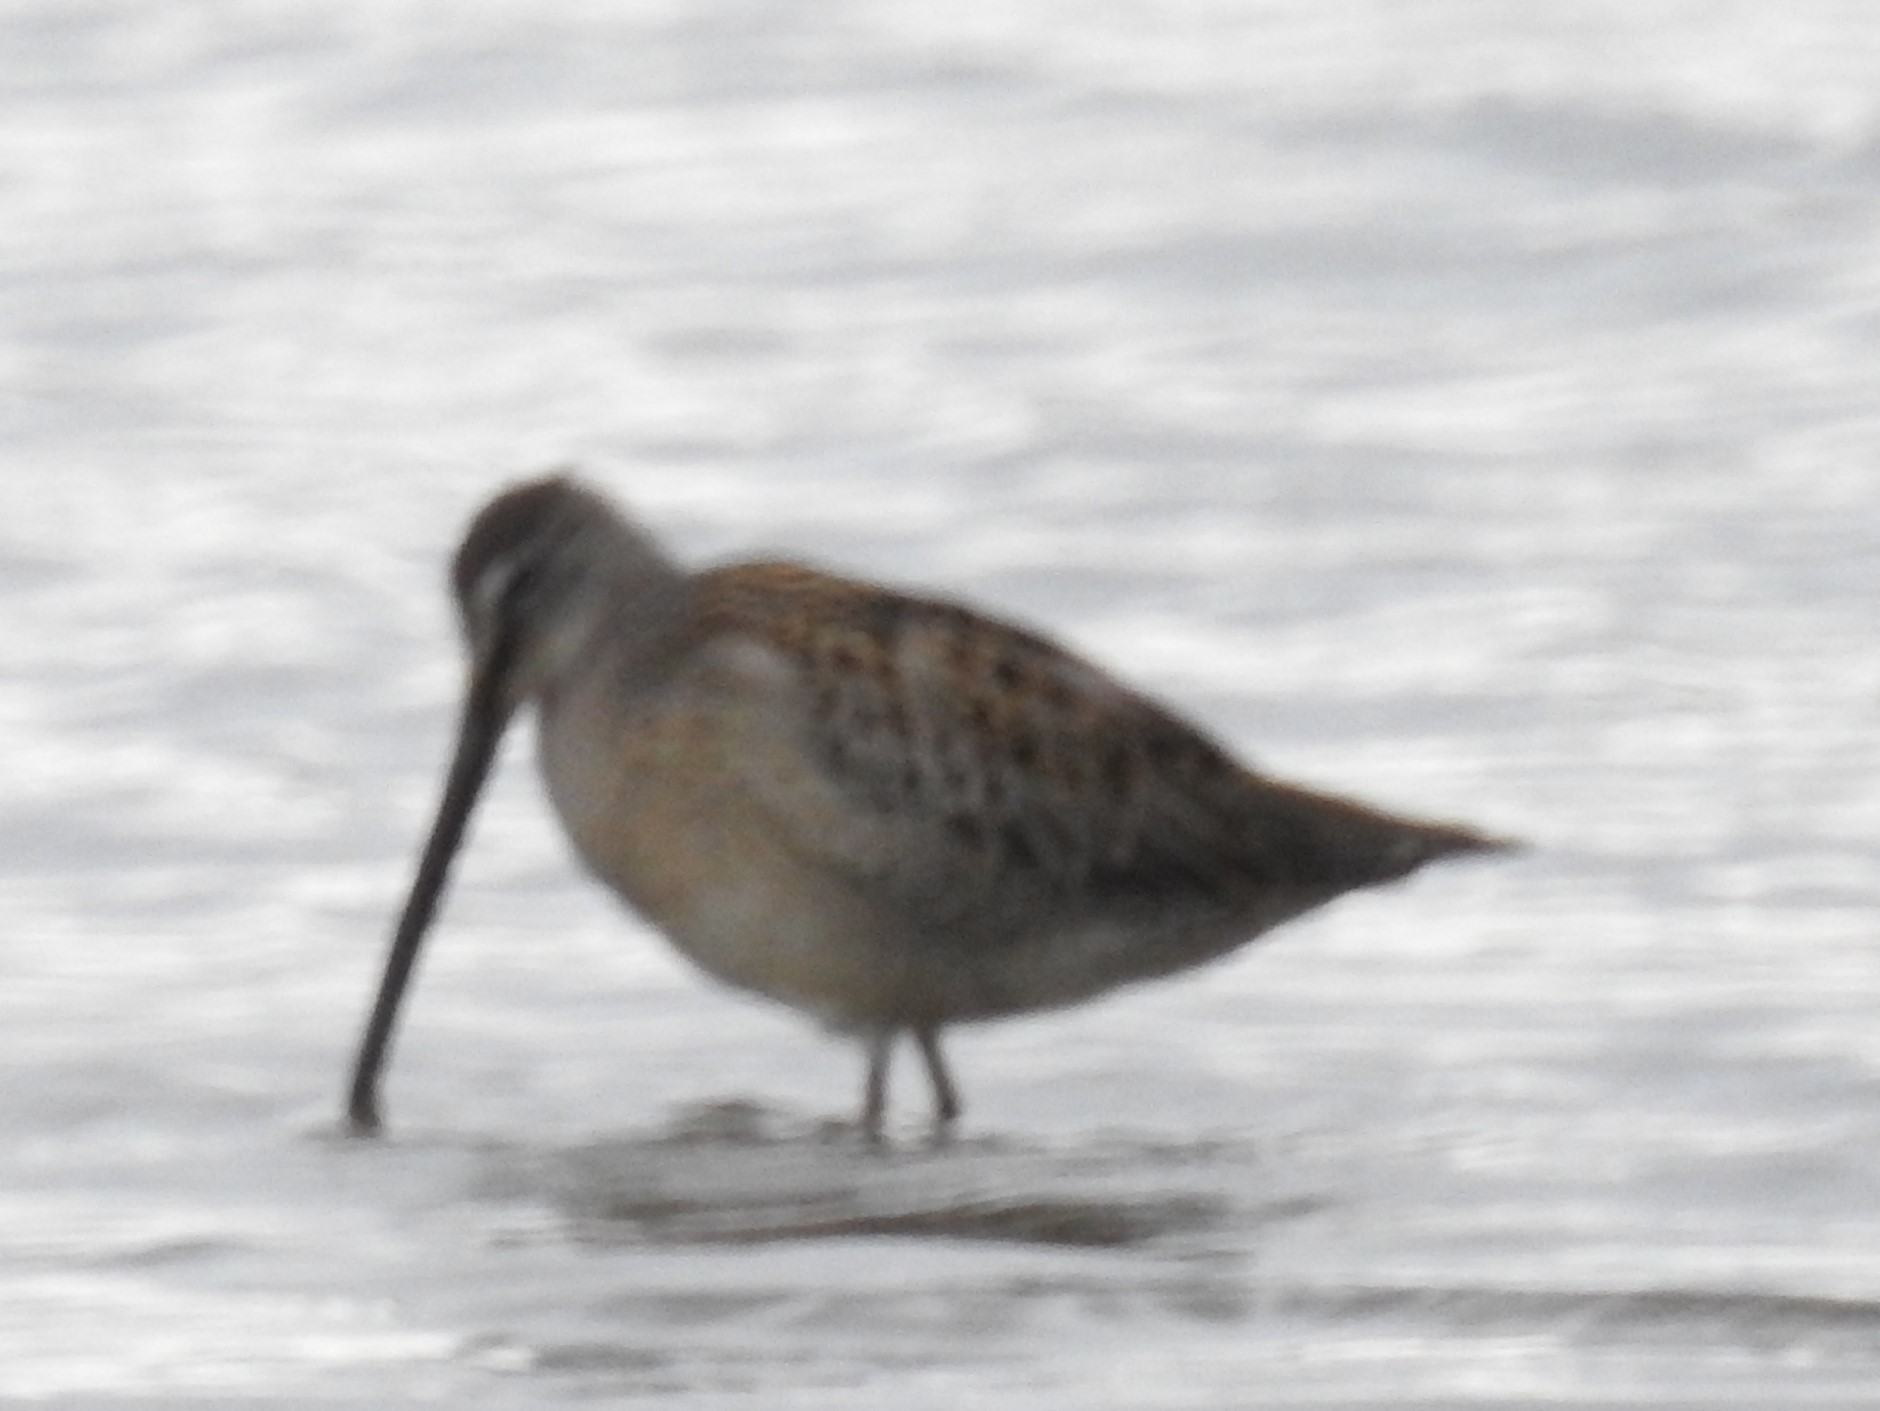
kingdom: Animalia
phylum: Chordata
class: Aves
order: Charadriiformes
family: Scolopacidae
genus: Limnodromus
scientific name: Limnodromus scolopaceus
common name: Long-billed dowitcher
